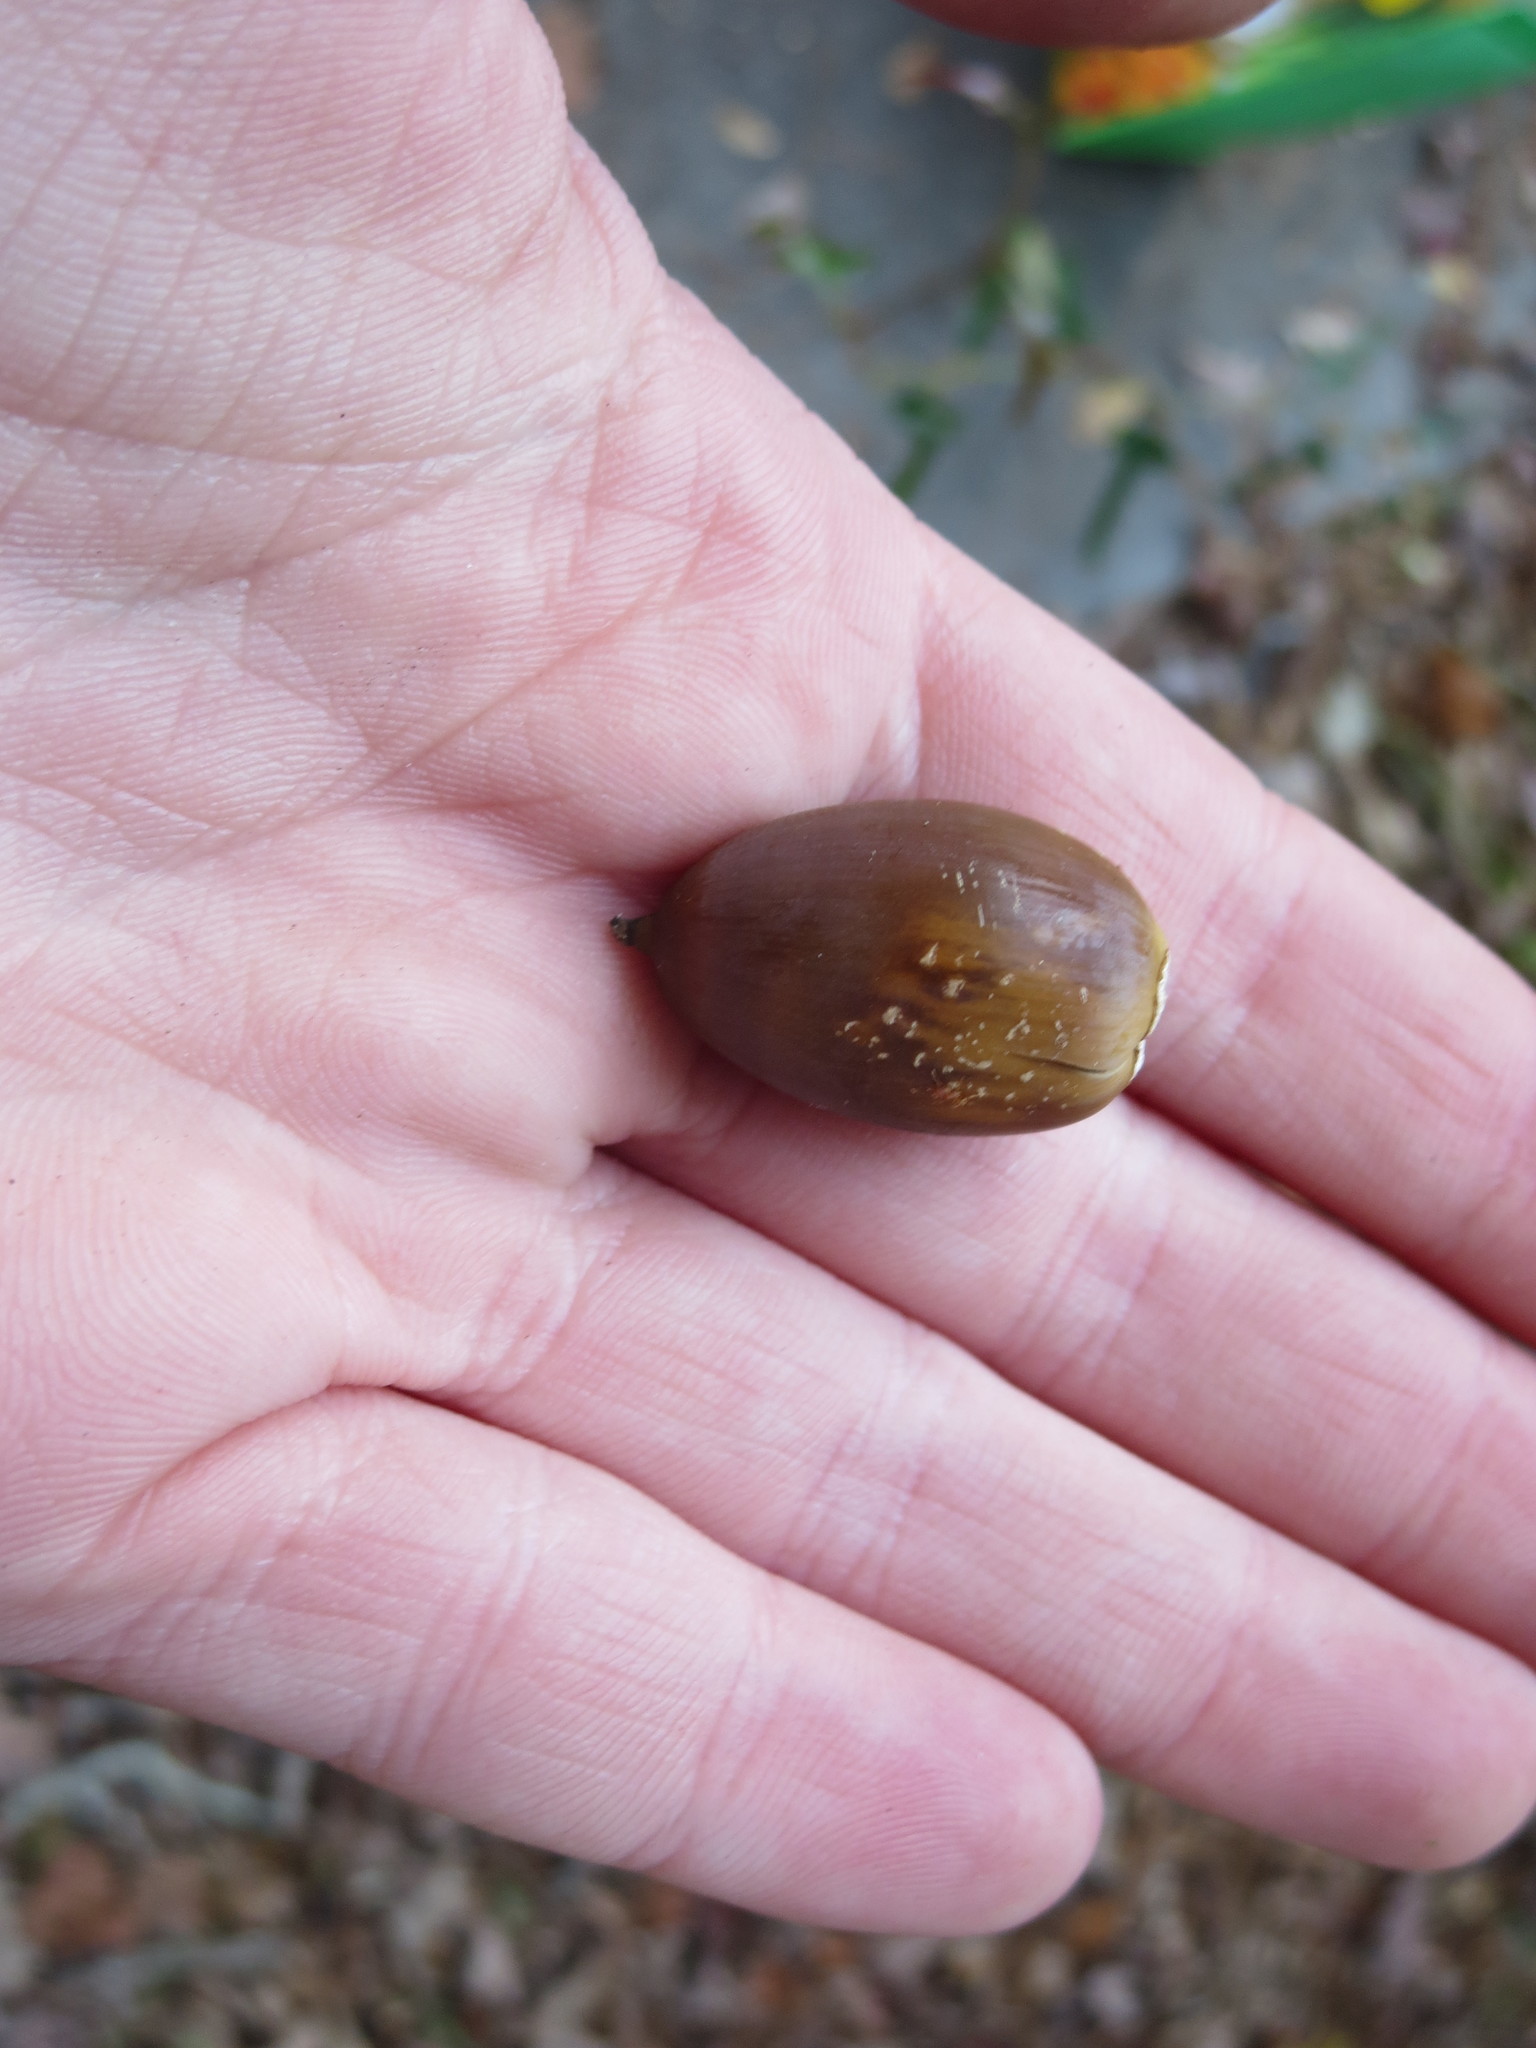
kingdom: Plantae
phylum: Tracheophyta
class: Magnoliopsida
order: Fagales
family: Fagaceae
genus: Quercus
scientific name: Quercus alba
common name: White oak
